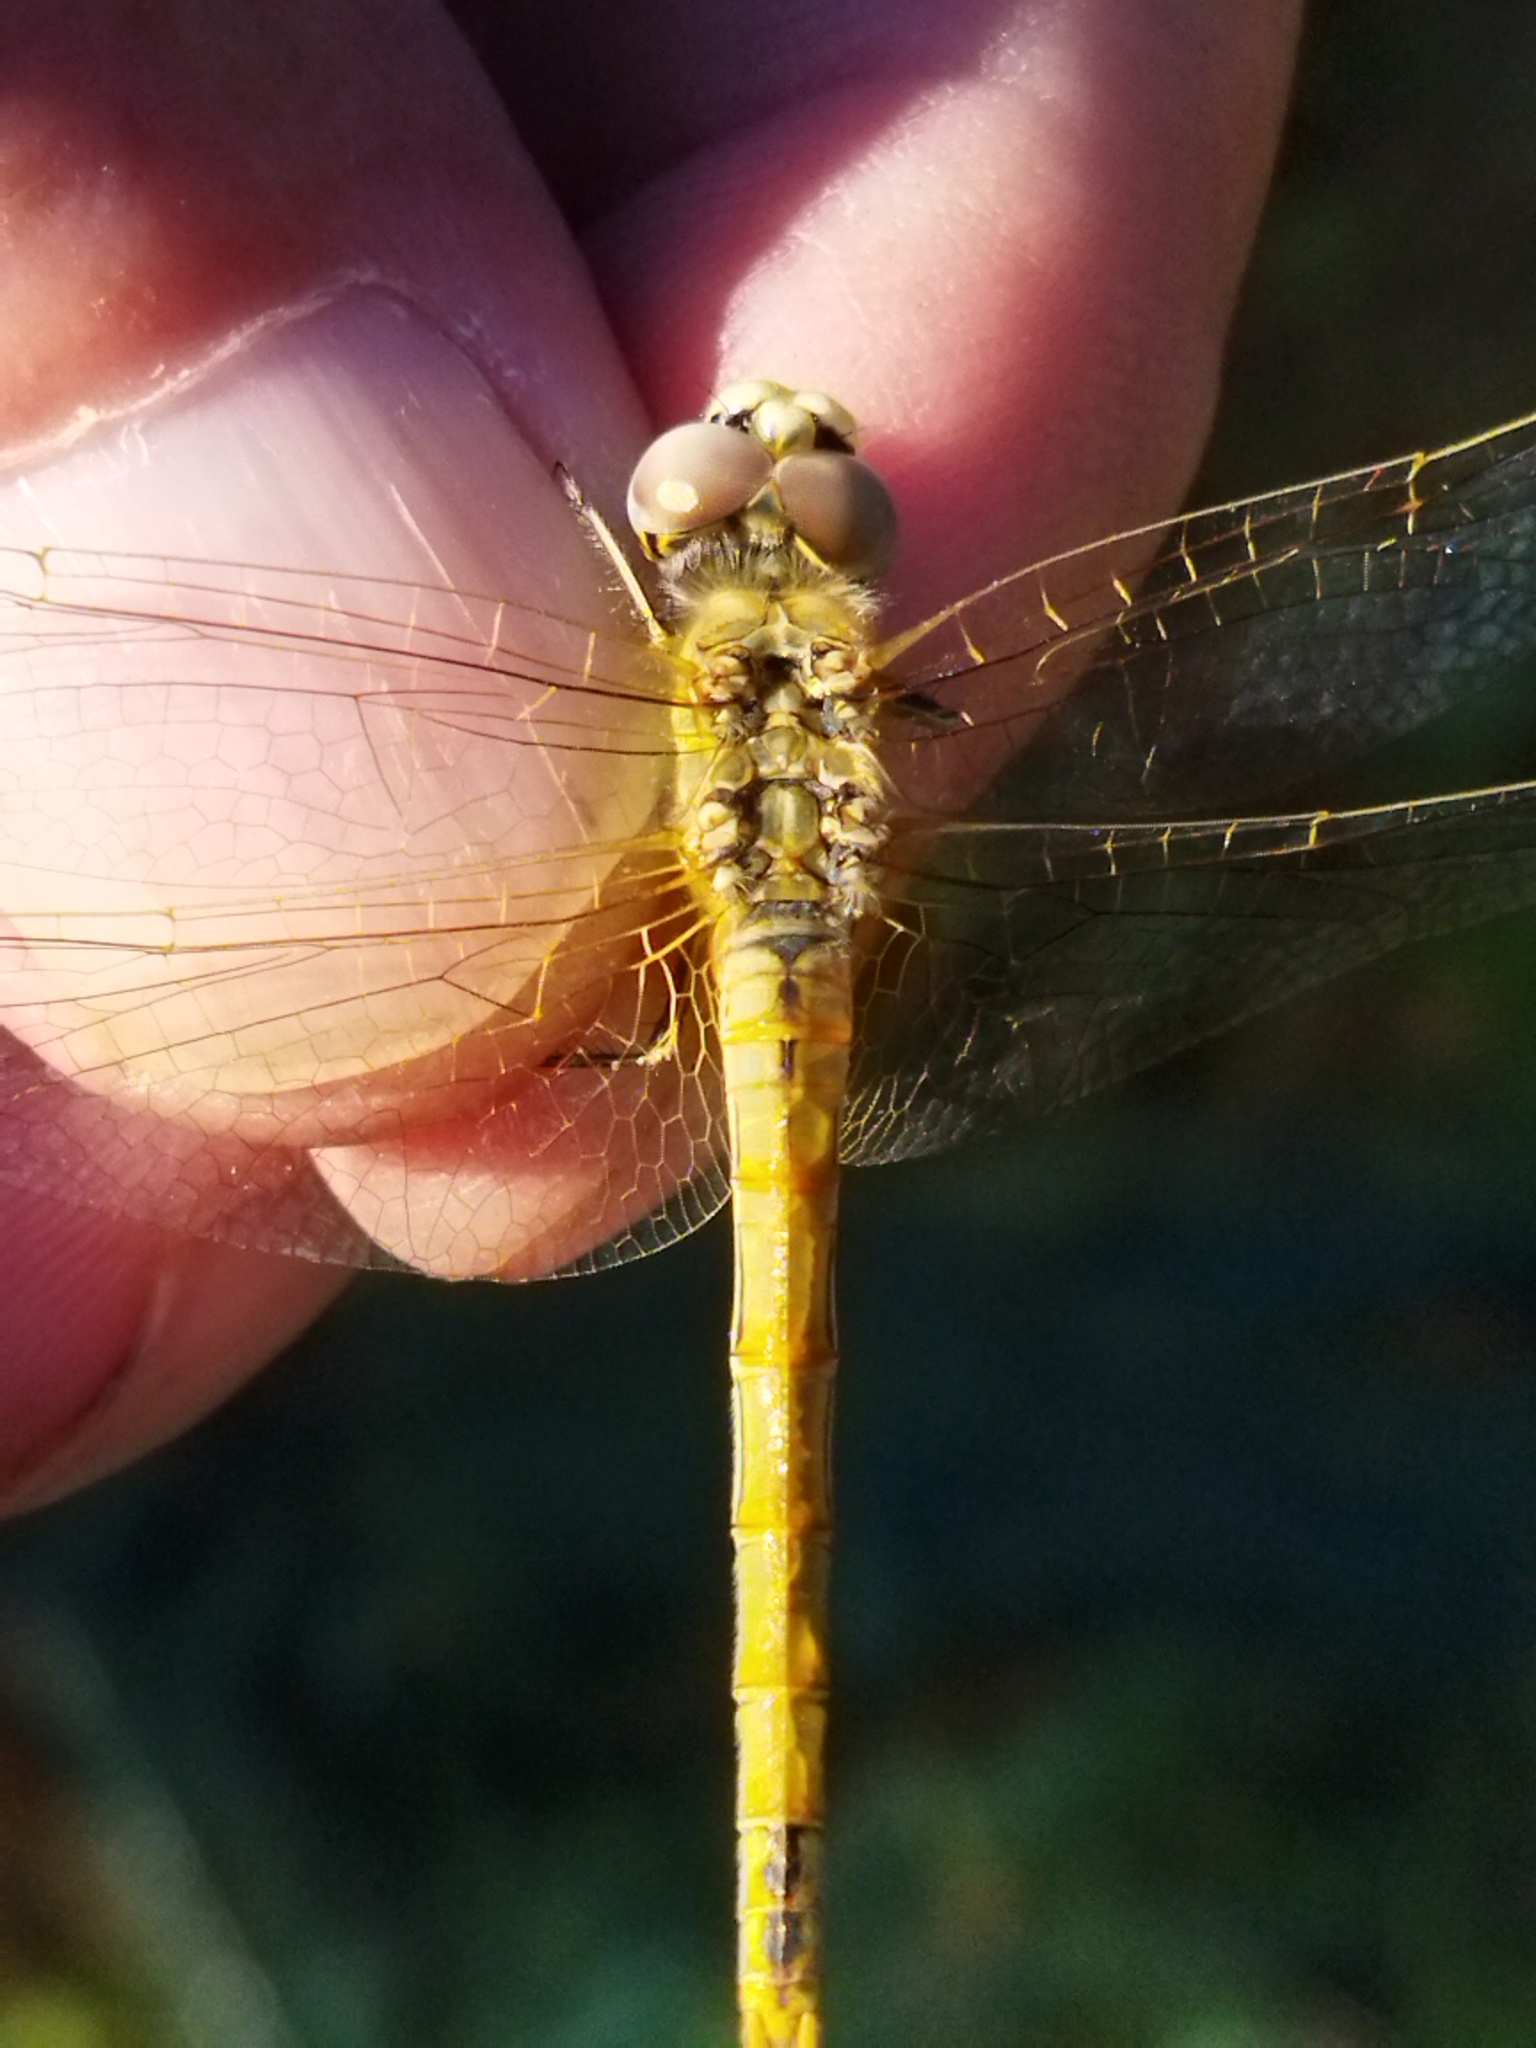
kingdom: Animalia
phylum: Arthropoda
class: Insecta
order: Odonata
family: Libellulidae
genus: Sympetrum
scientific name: Sympetrum fonscolombii
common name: Red-veined darter
